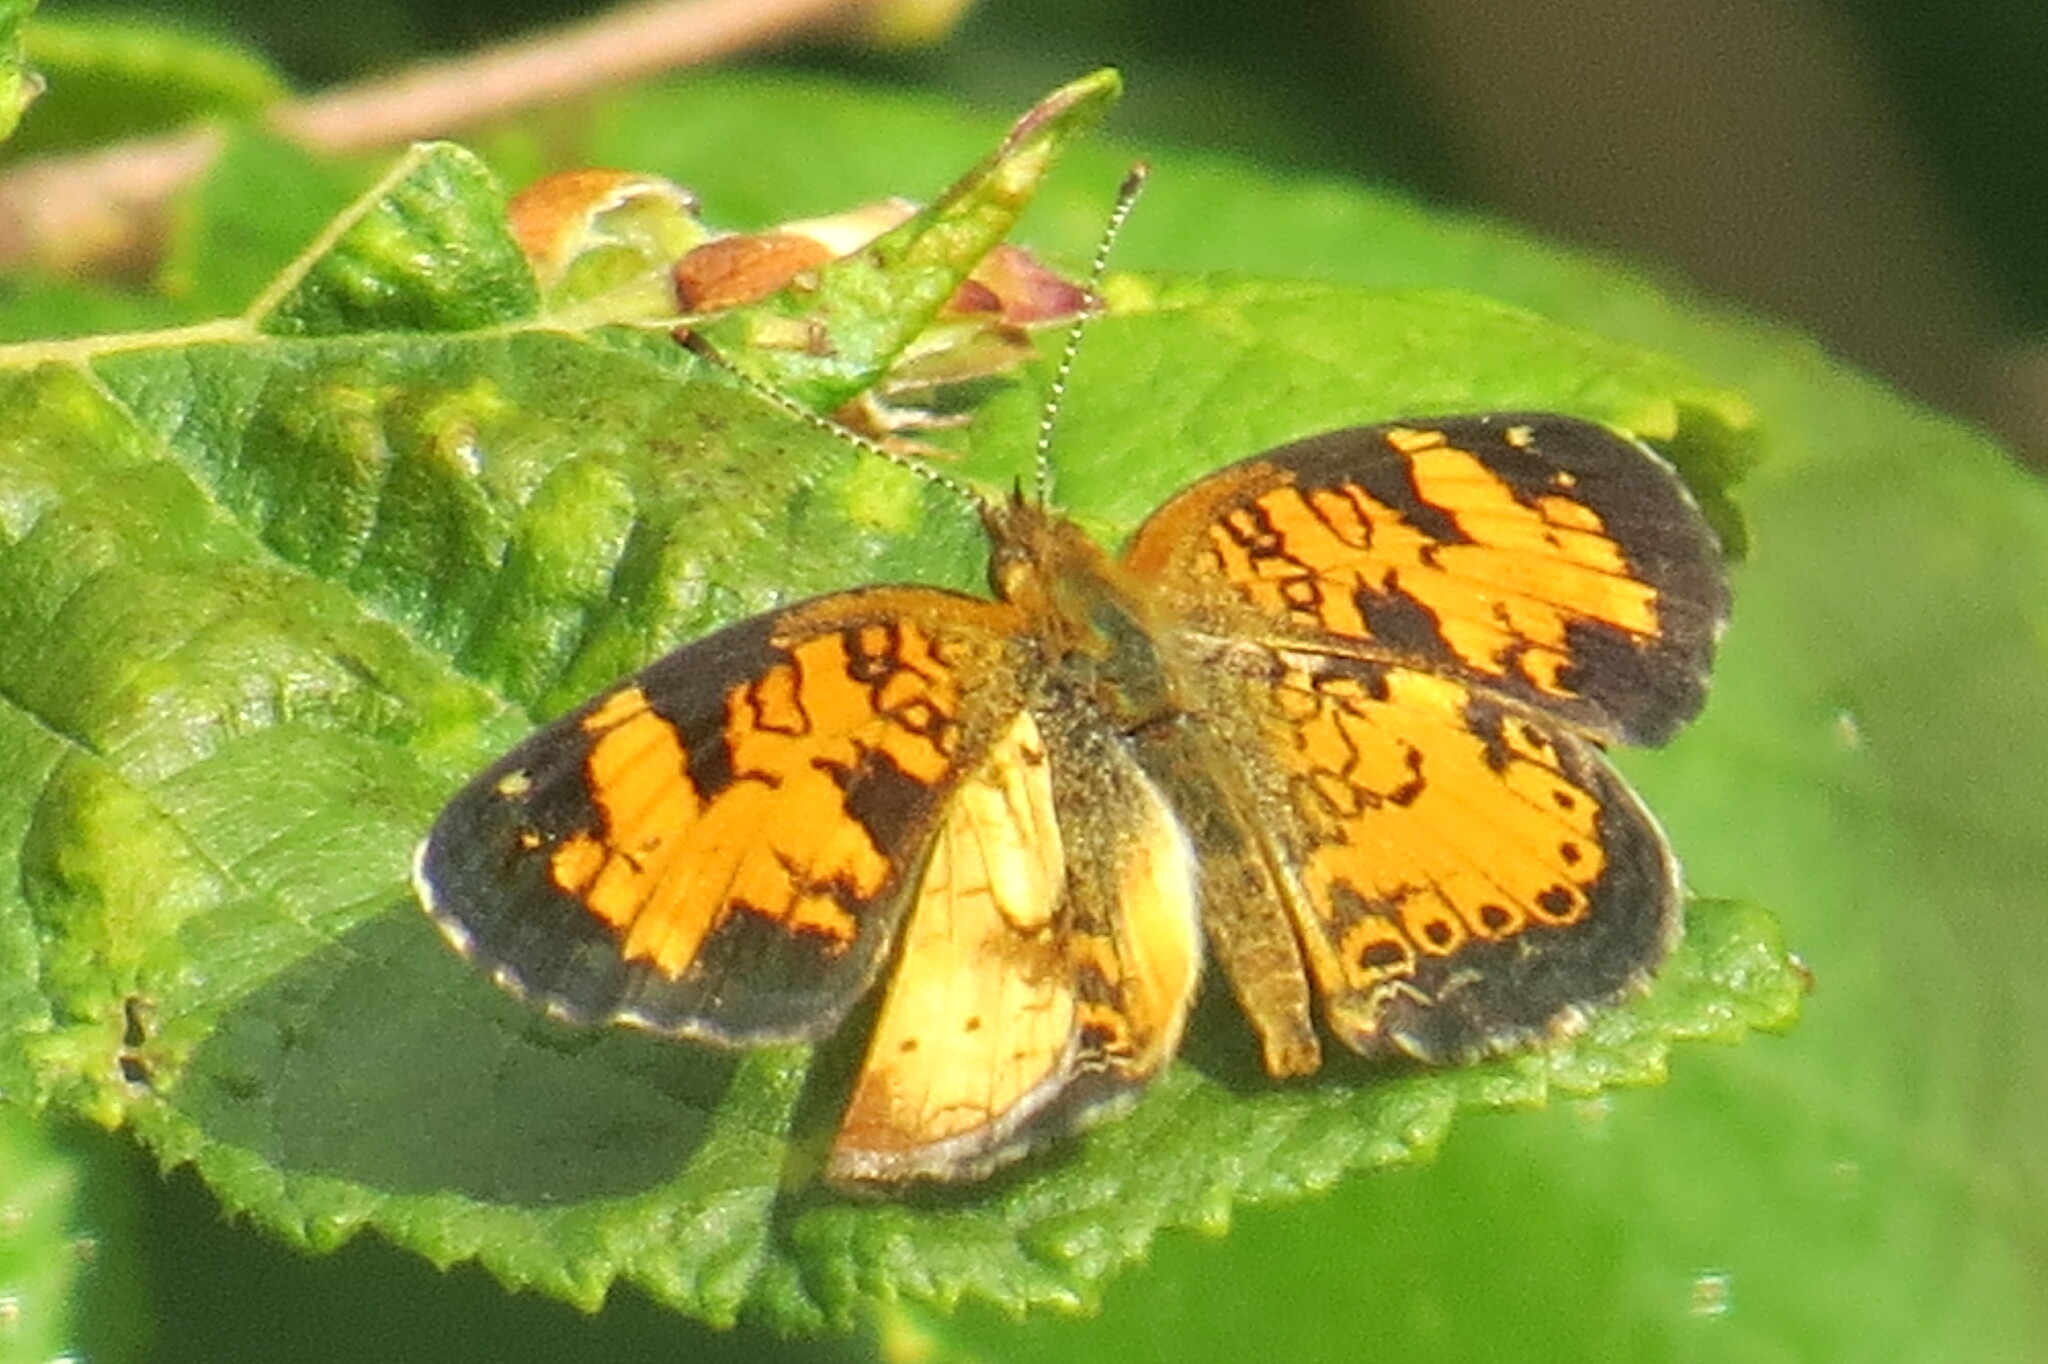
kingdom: Animalia
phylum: Arthropoda
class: Insecta
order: Lepidoptera
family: Nymphalidae
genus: Phyciodes
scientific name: Phyciodes tharos
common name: Pearl crescent
